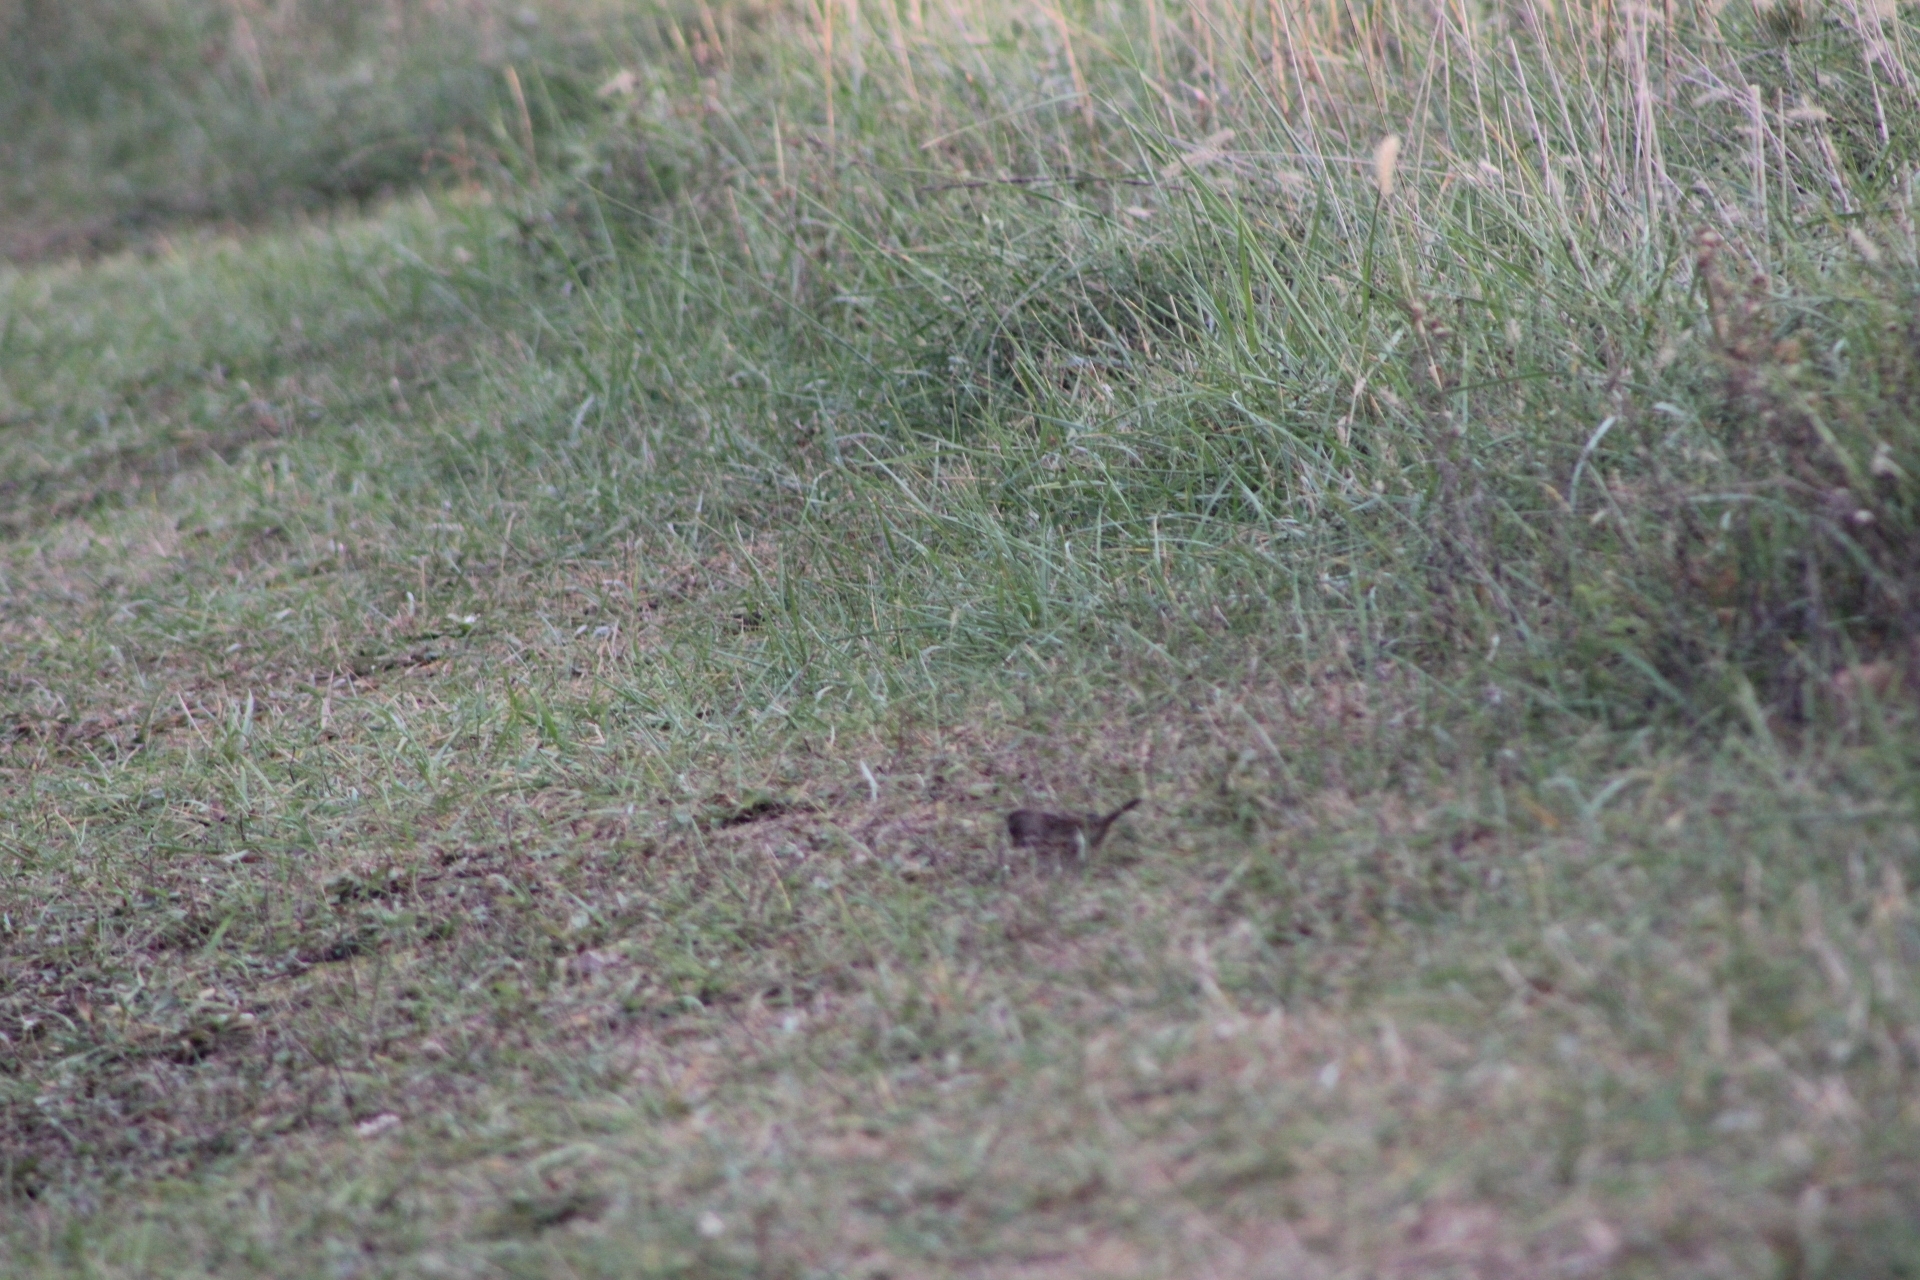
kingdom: Animalia
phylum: Chordata
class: Aves
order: Passeriformes
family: Passerellidae
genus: Melospiza
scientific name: Melospiza melodia
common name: Song sparrow
